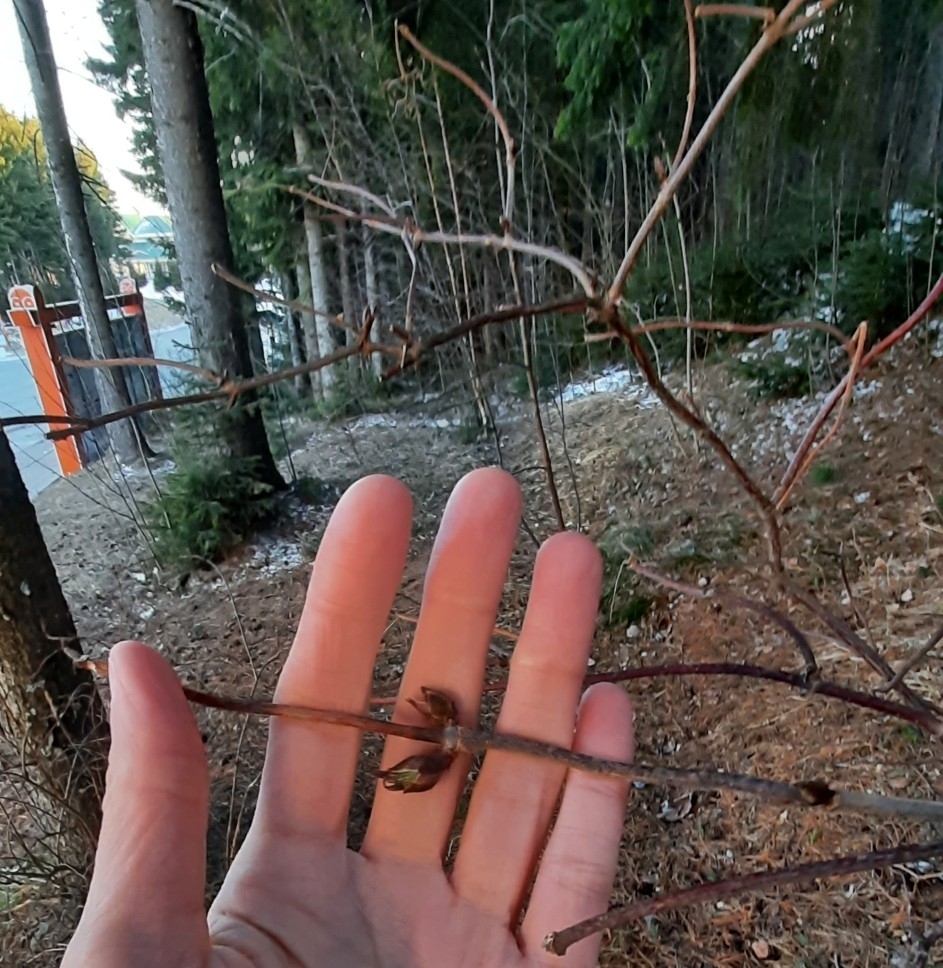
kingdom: Plantae
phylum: Tracheophyta
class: Magnoliopsida
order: Dipsacales
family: Viburnaceae
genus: Sambucus
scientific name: Sambucus sibirica
